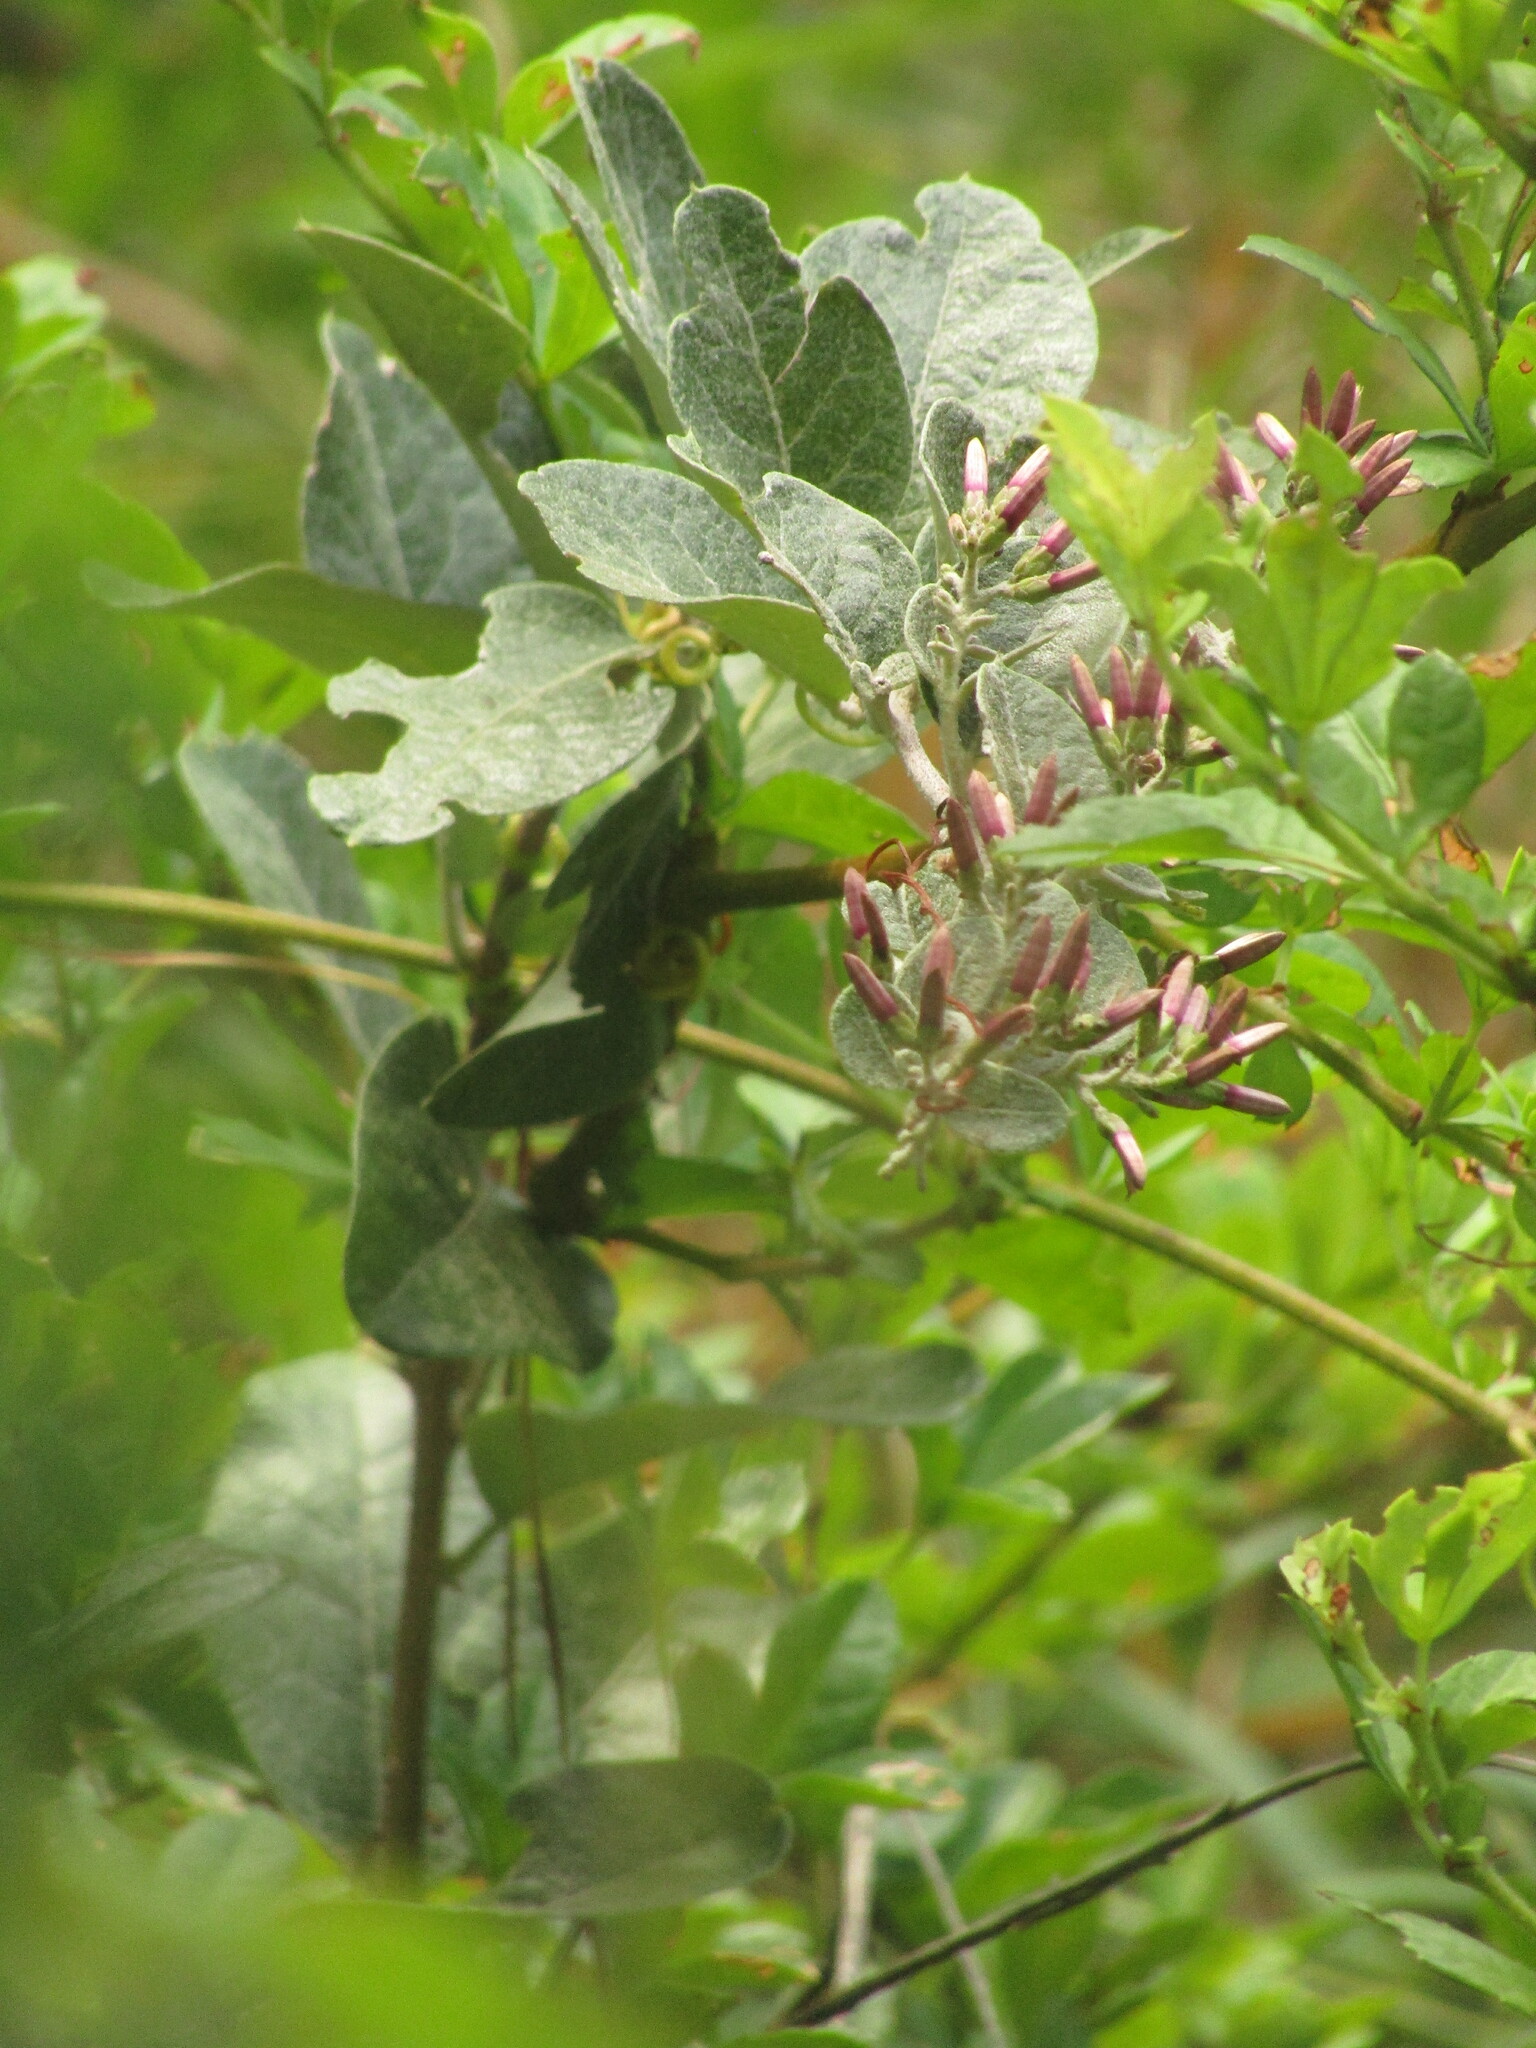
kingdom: Plantae
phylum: Tracheophyta
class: Magnoliopsida
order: Asterales
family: Asteraceae
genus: Proustia
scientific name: Proustia pyrifolia
